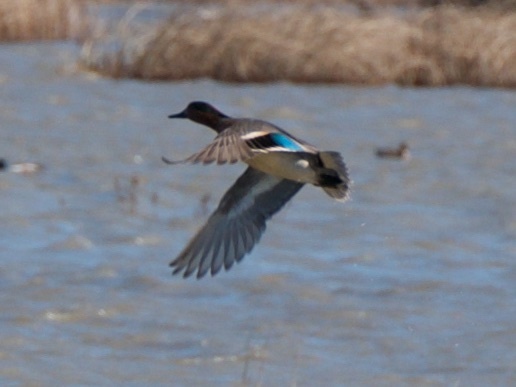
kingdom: Animalia
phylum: Chordata
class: Aves
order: Anseriformes
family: Anatidae
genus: Anas
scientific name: Anas crecca
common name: Eurasian teal
